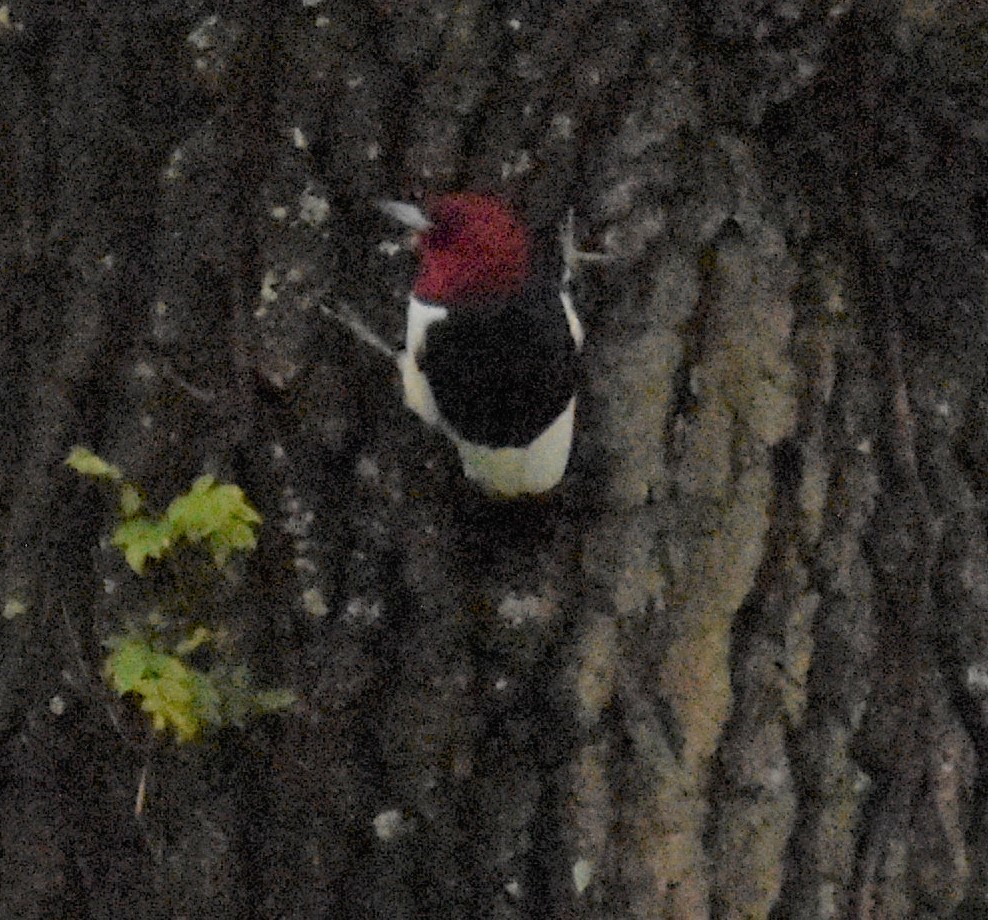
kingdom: Animalia
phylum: Chordata
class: Aves
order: Piciformes
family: Picidae
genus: Melanerpes
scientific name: Melanerpes erythrocephalus
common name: Red-headed woodpecker
